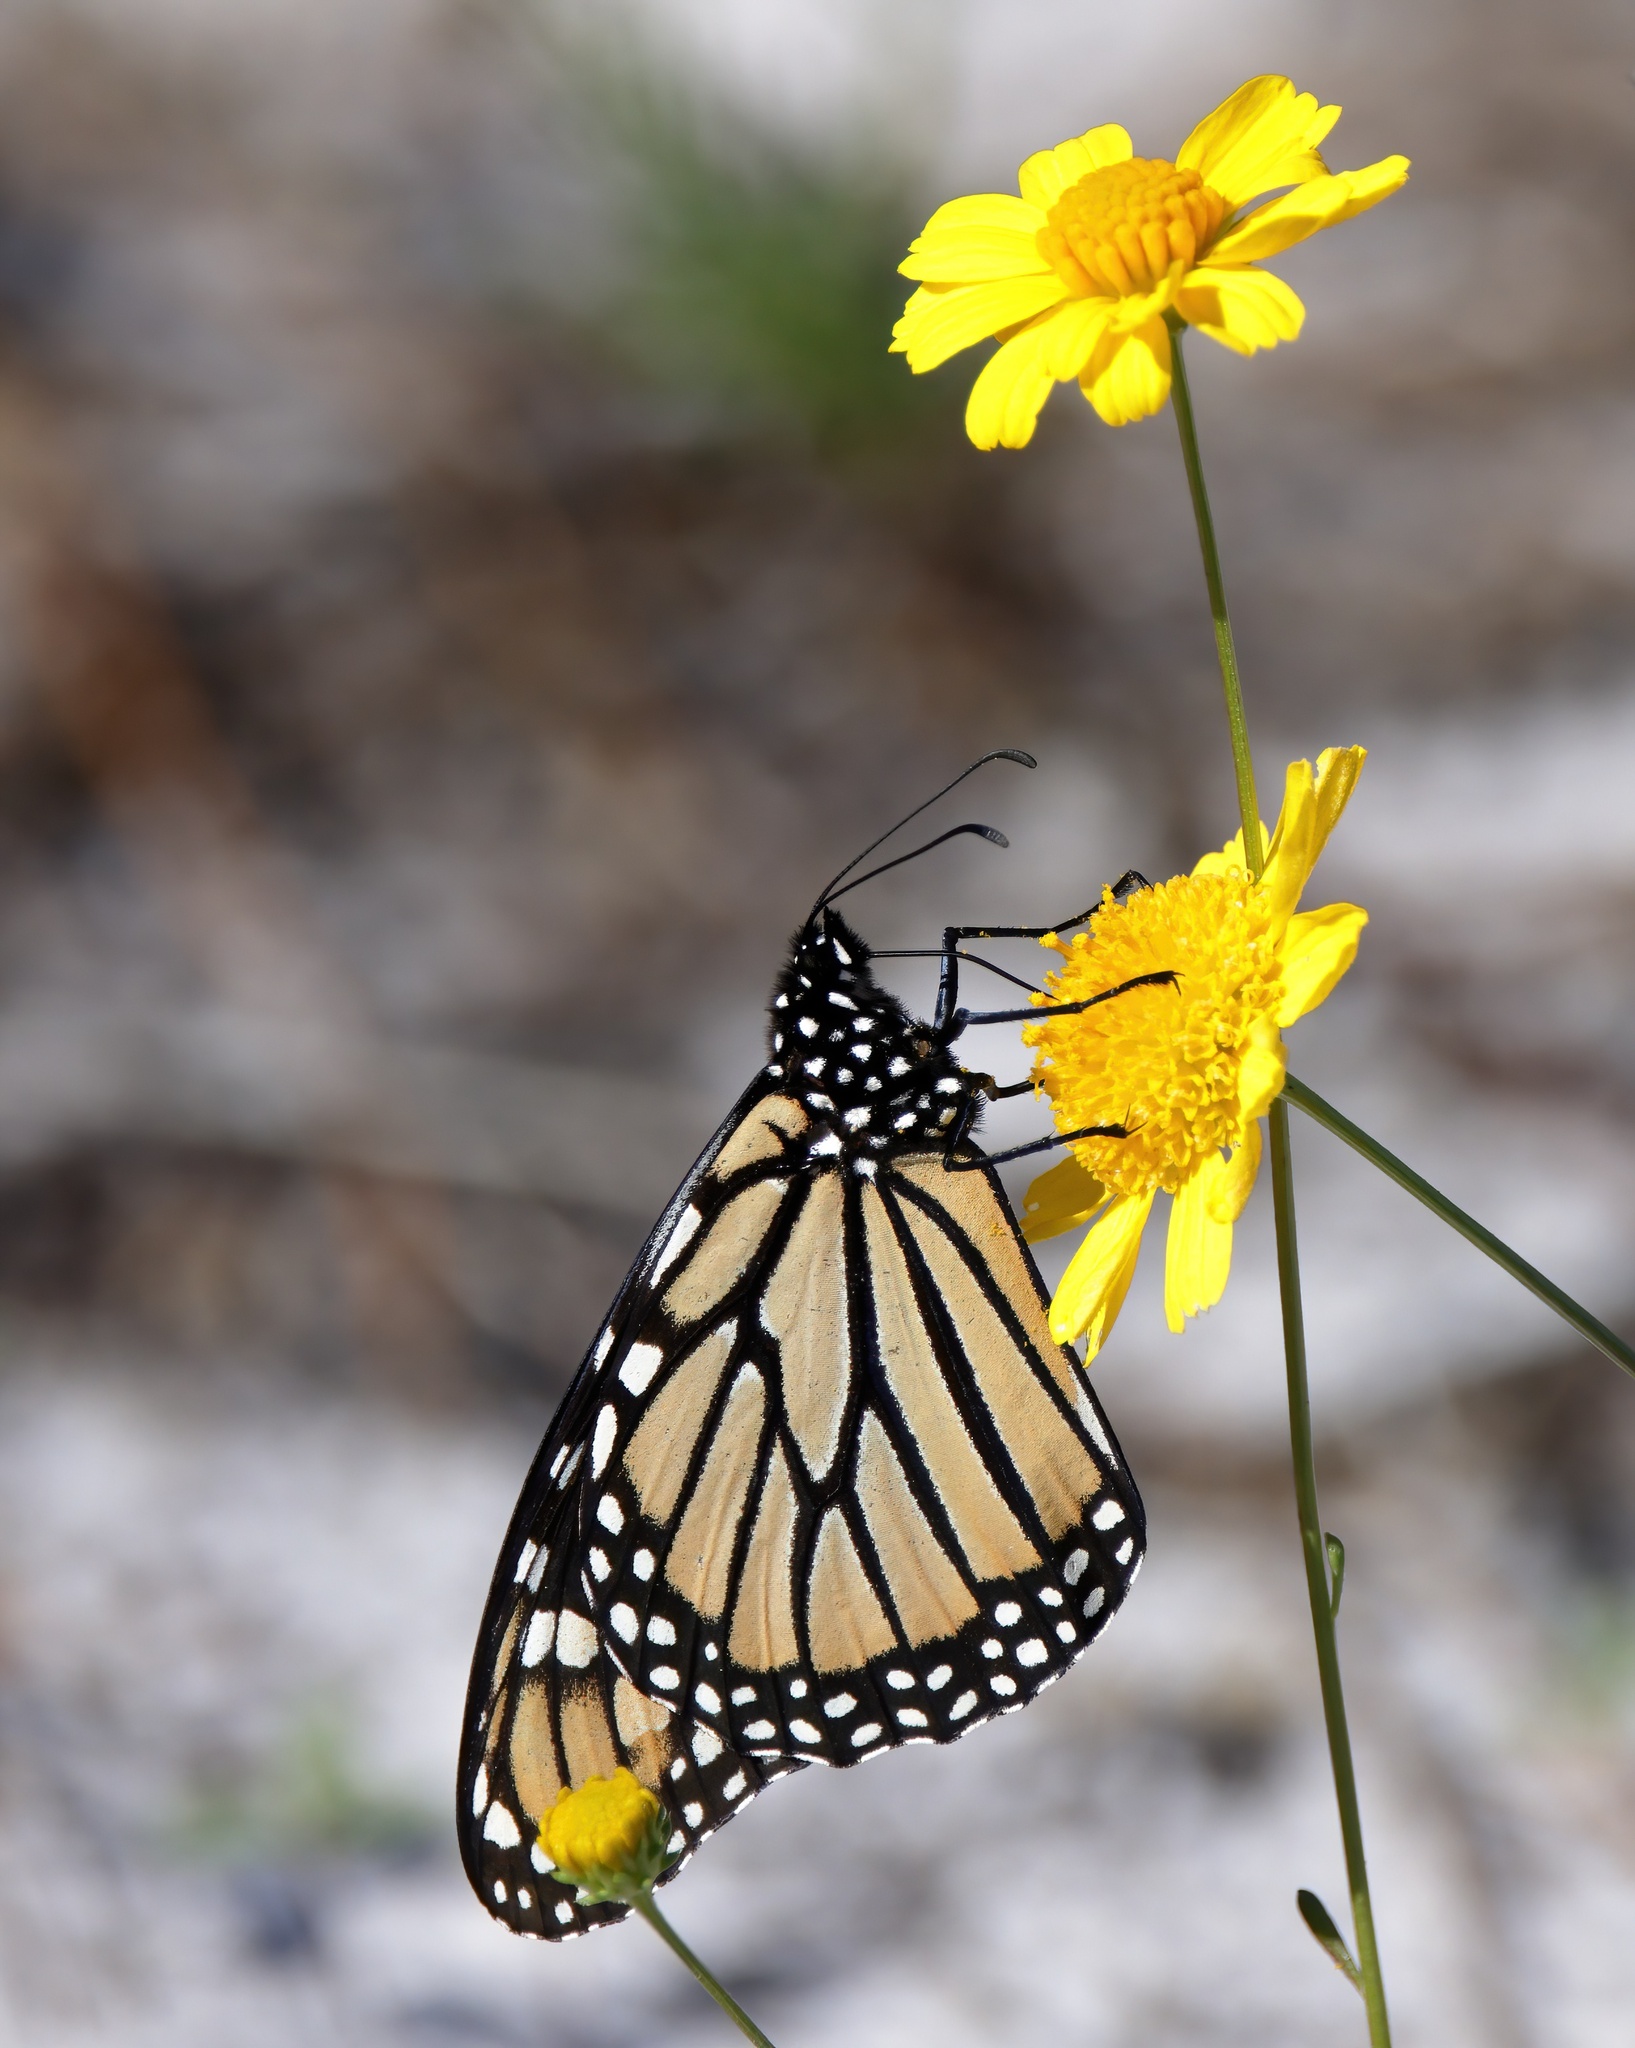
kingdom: Animalia
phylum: Arthropoda
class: Insecta
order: Lepidoptera
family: Nymphalidae
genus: Danaus
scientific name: Danaus plexippus
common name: Monarch
